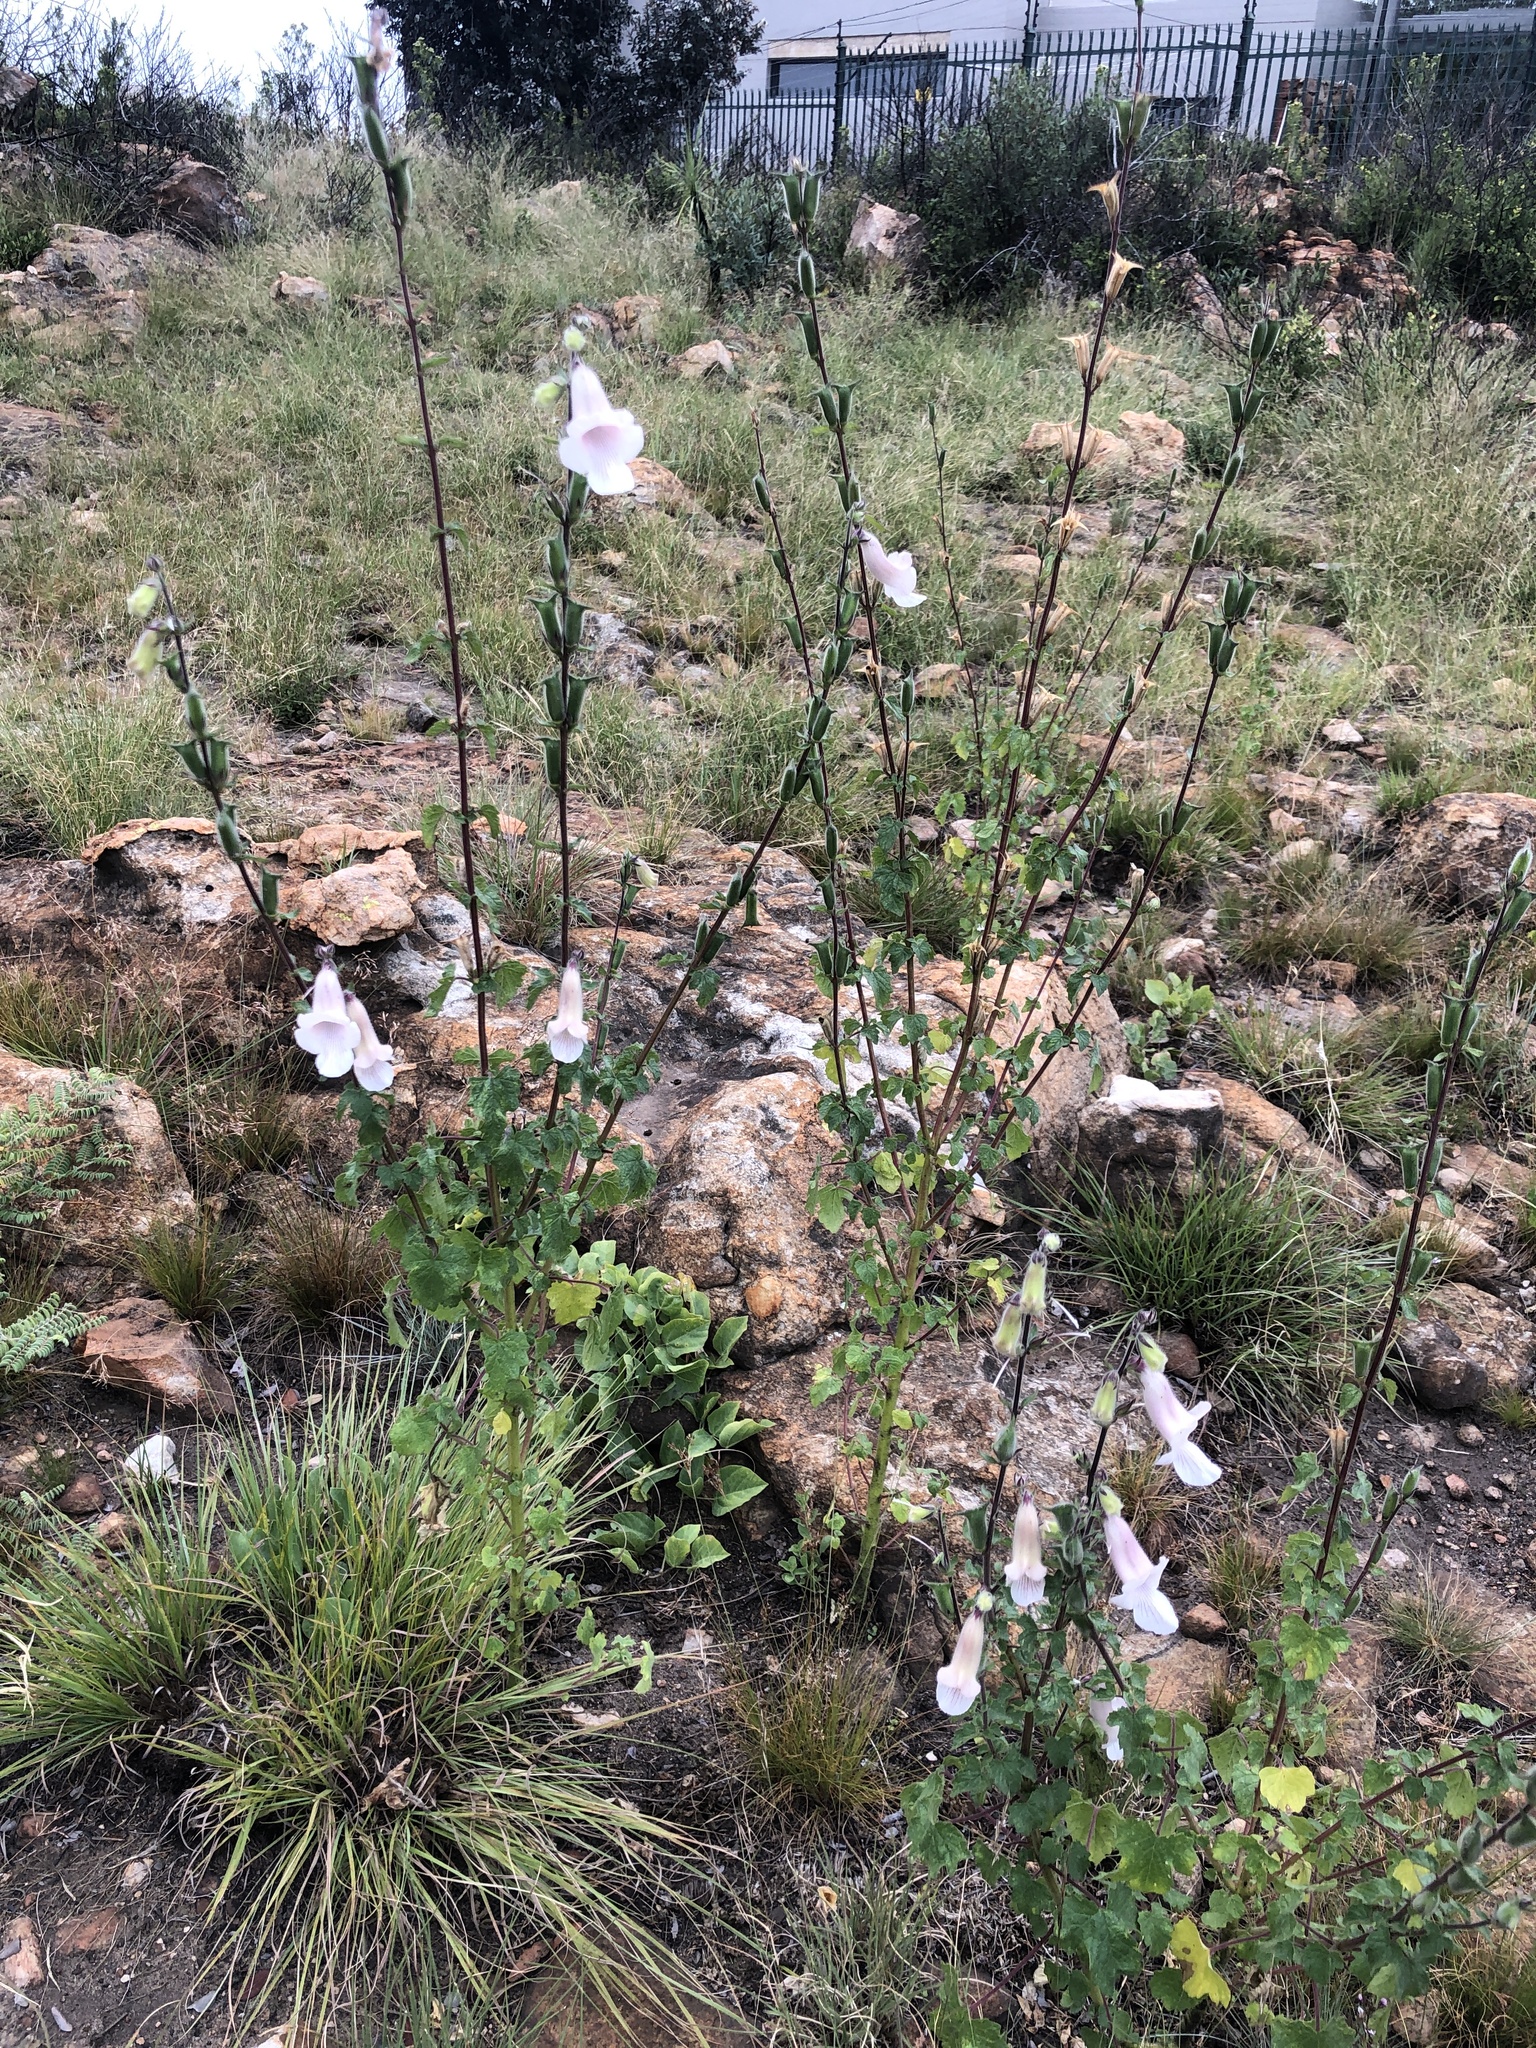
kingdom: Plantae
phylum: Tracheophyta
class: Magnoliopsida
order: Lamiales
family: Pedaliaceae
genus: Sesamum
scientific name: Sesamum trilobum
